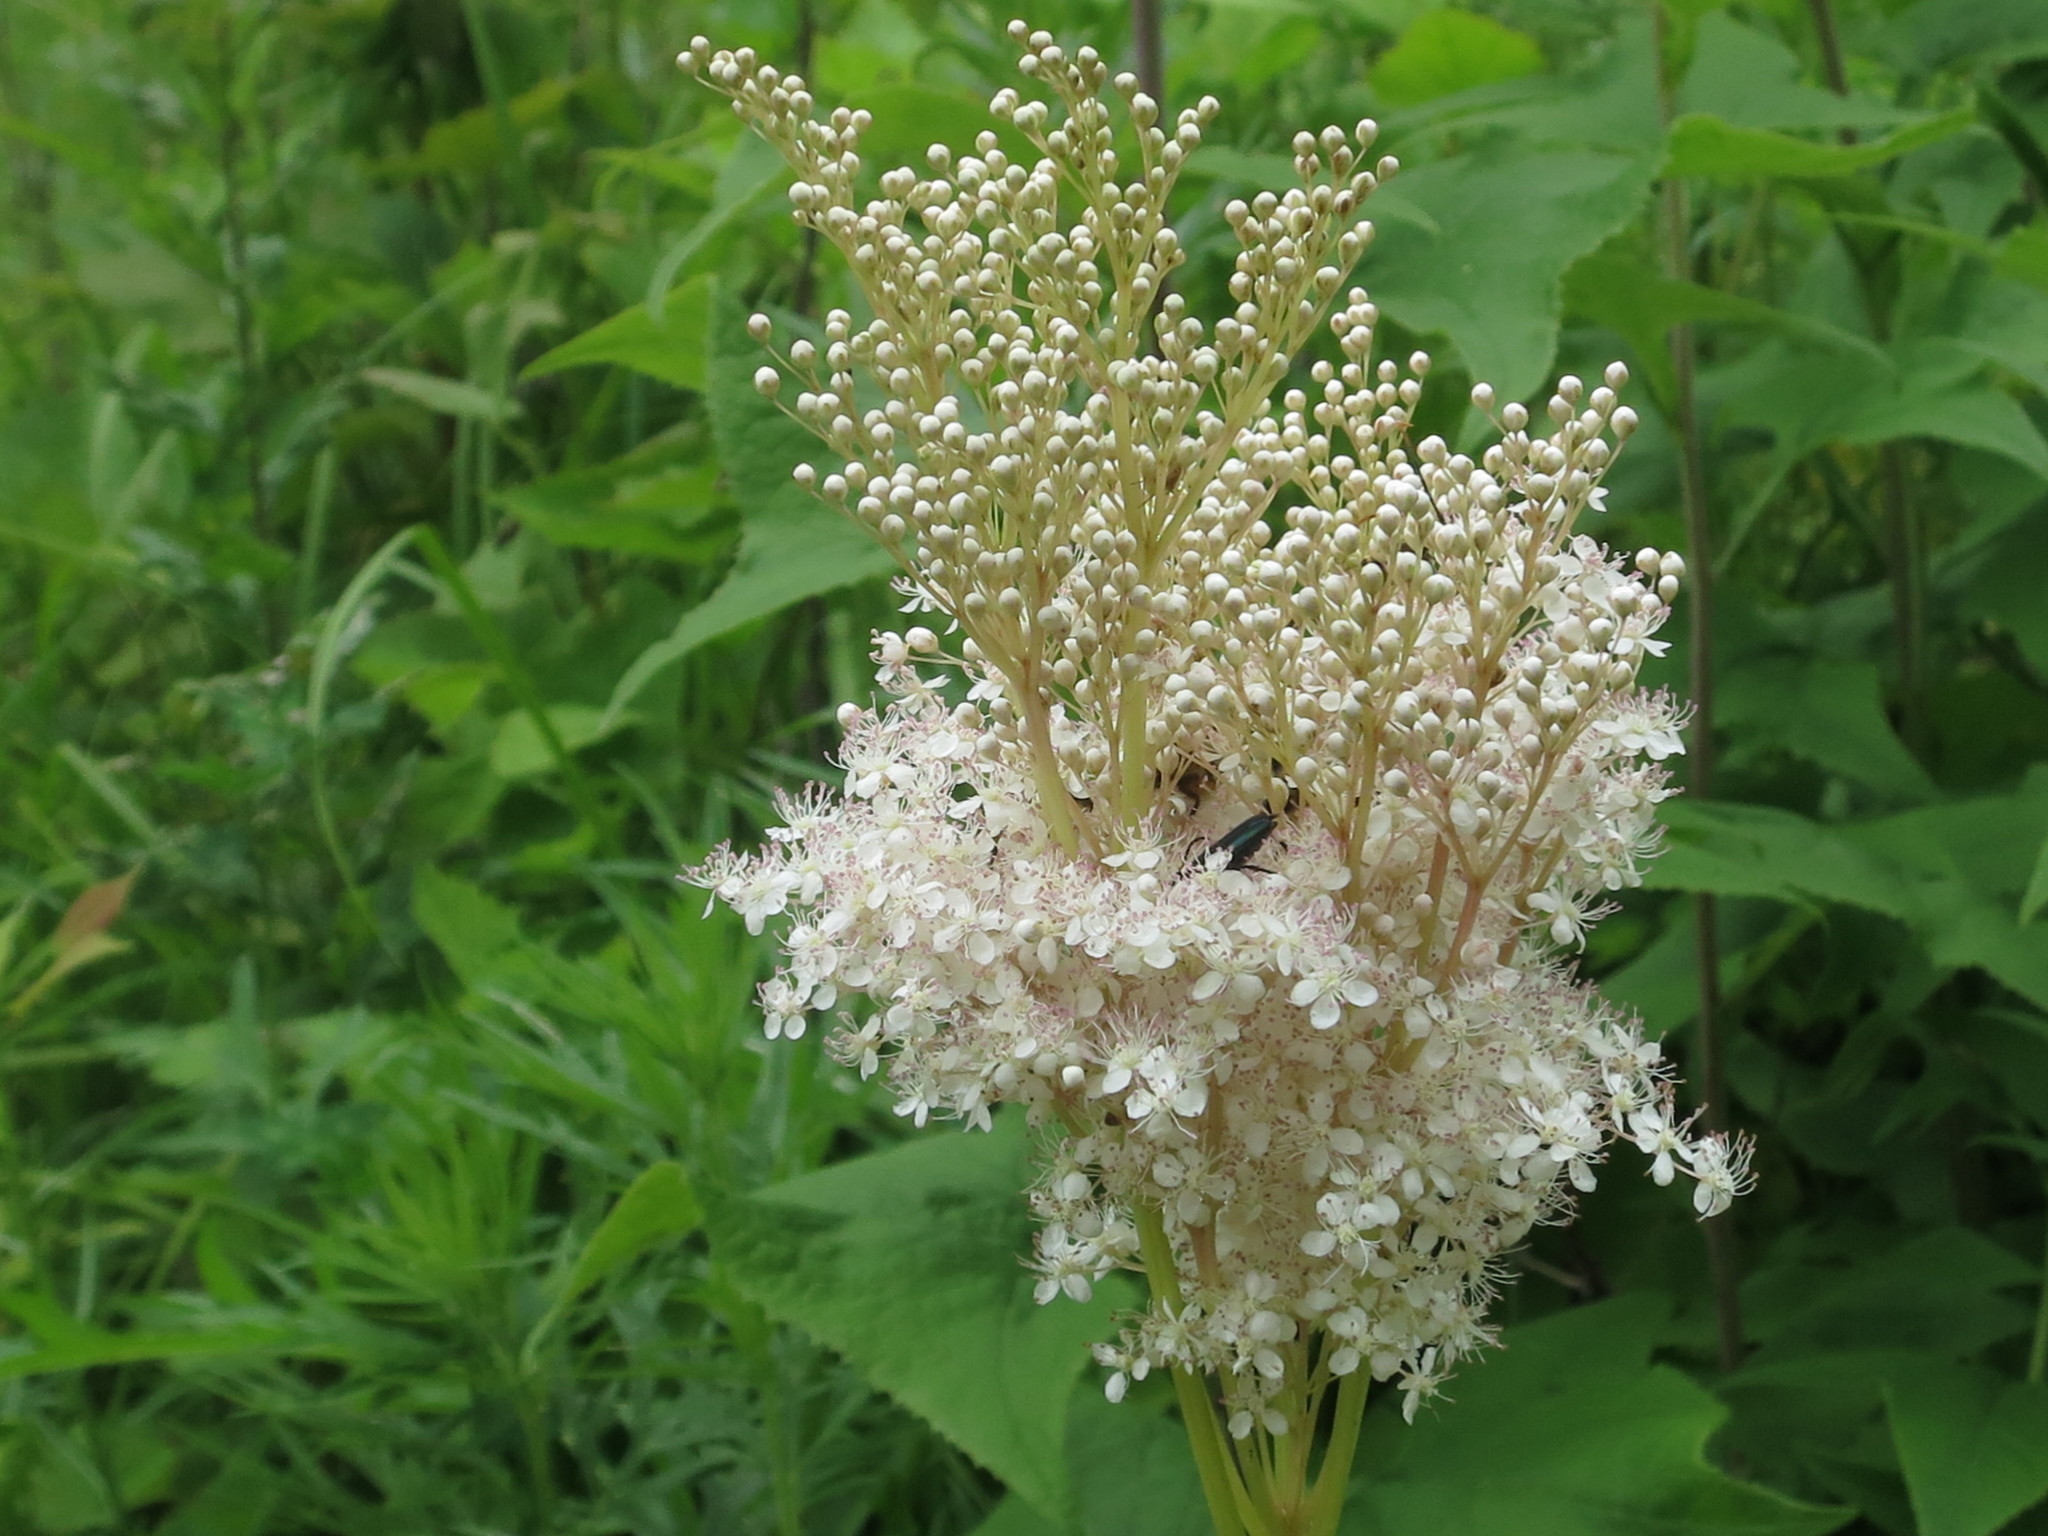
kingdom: Plantae
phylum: Tracheophyta
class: Magnoliopsida
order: Rosales
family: Rosaceae
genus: Filipendula
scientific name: Filipendula digitata
